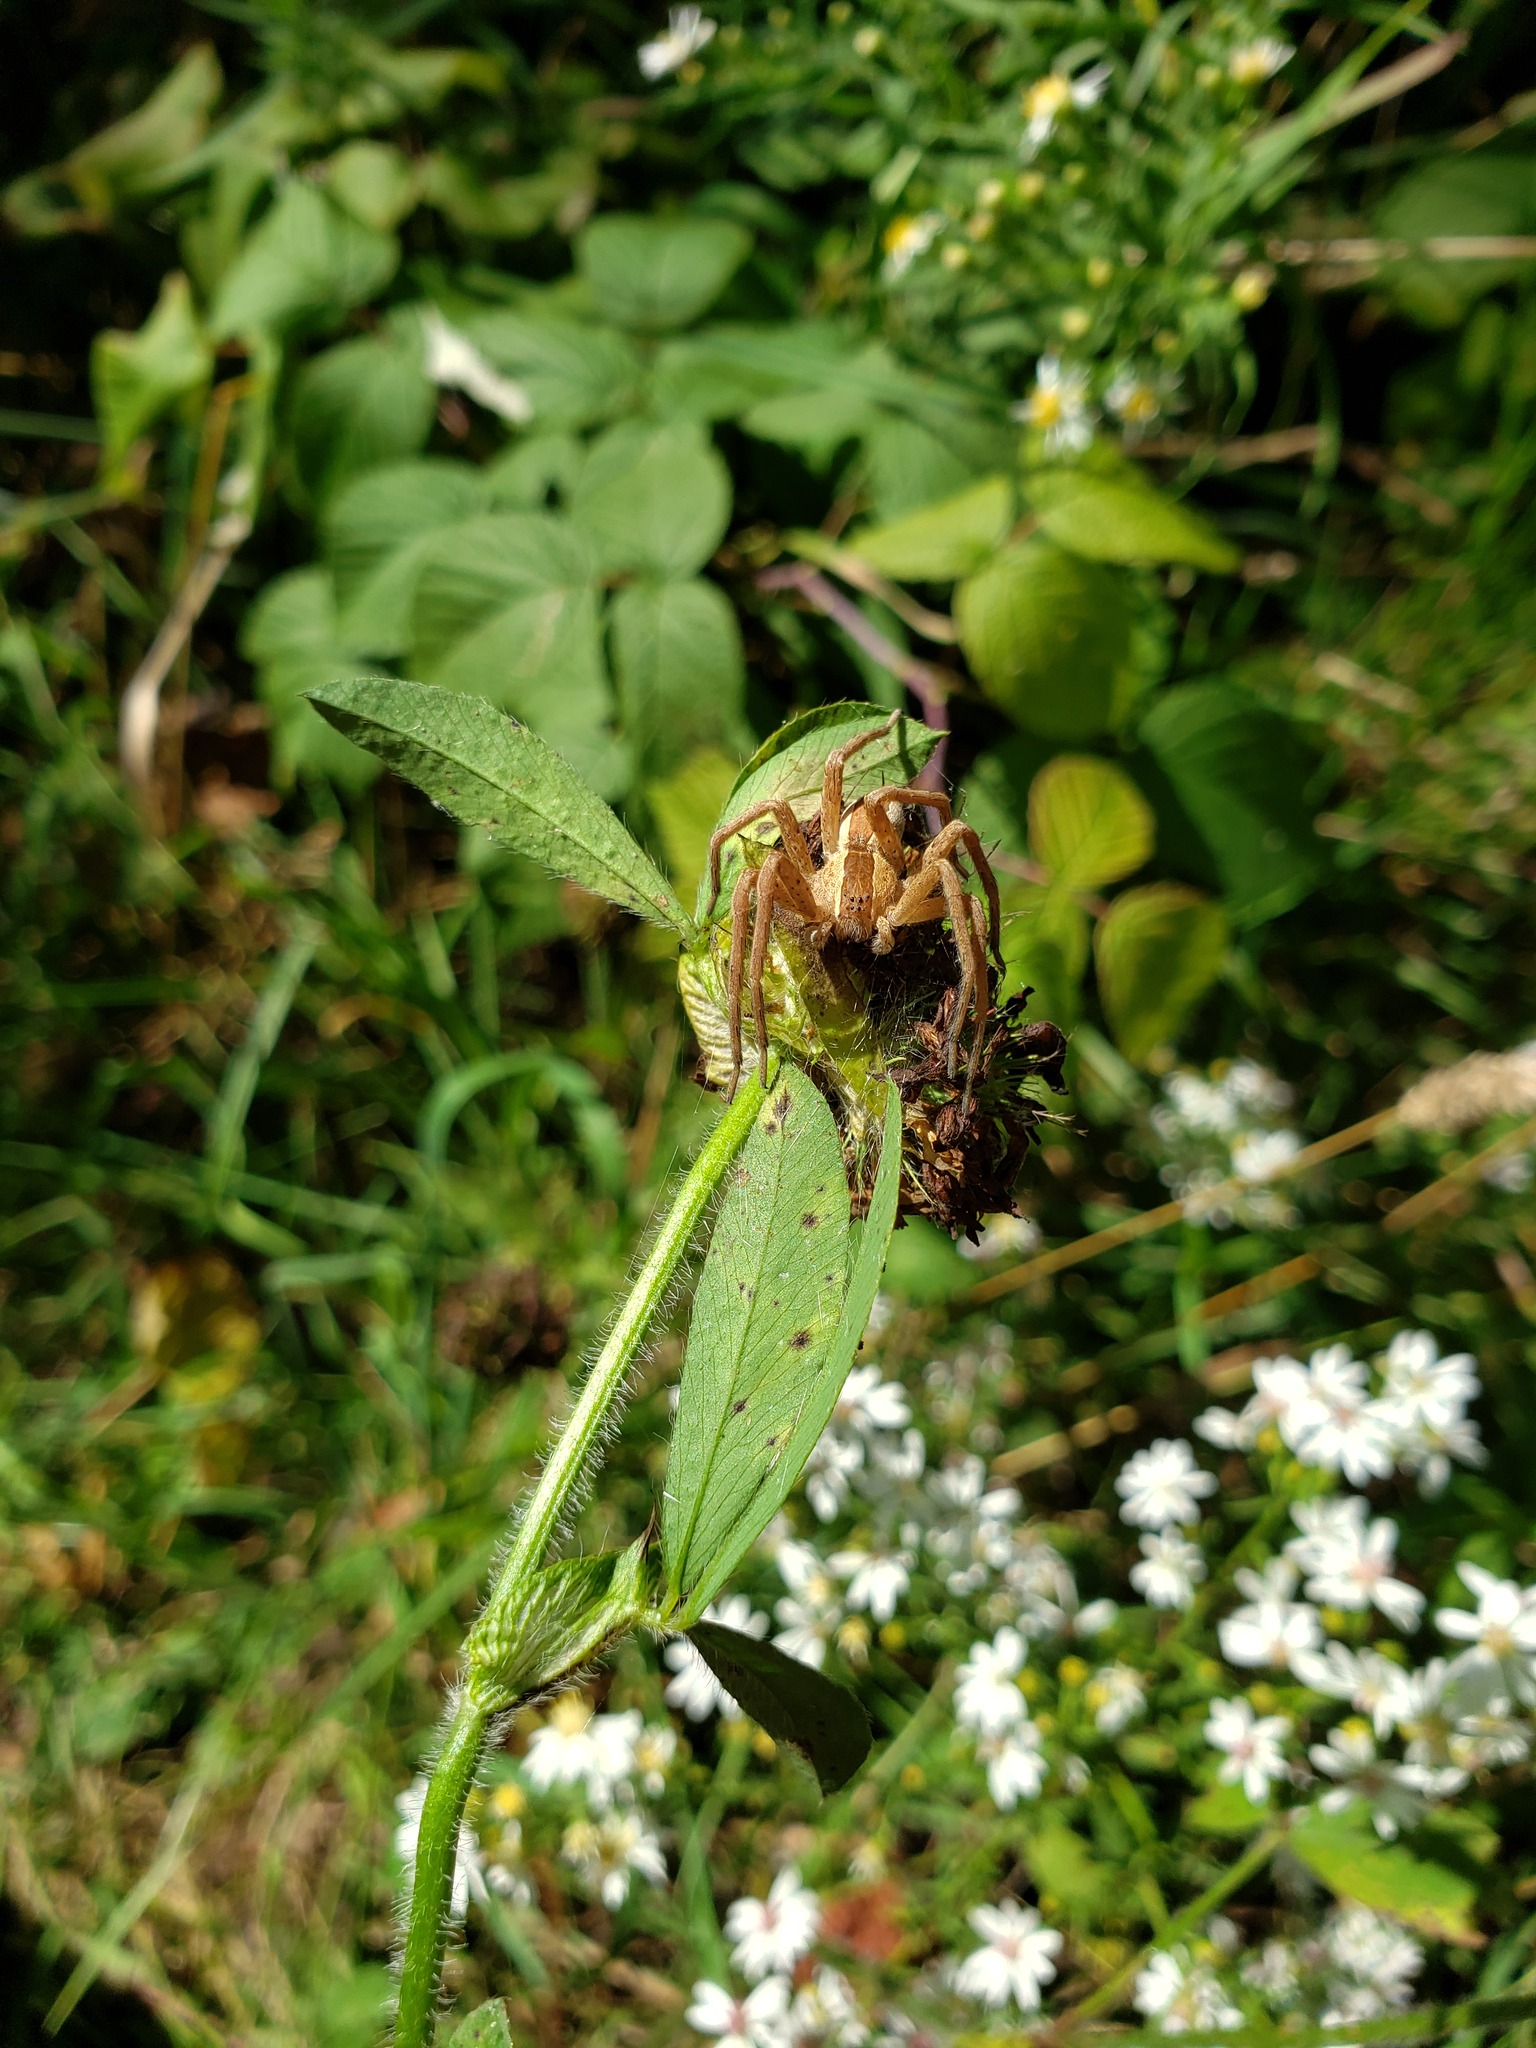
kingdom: Animalia
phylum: Arthropoda
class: Arachnida
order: Araneae
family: Pisauridae
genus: Pisaurina
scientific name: Pisaurina mira
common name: American nursery web spider
